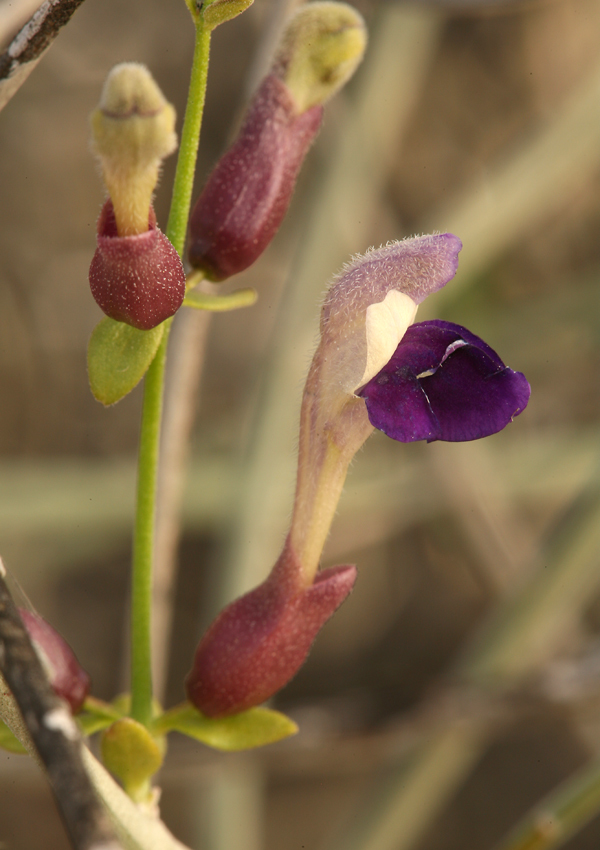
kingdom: Plantae
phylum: Tracheophyta
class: Magnoliopsida
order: Lamiales
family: Lamiaceae
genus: Scutellaria
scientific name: Scutellaria mexicana
